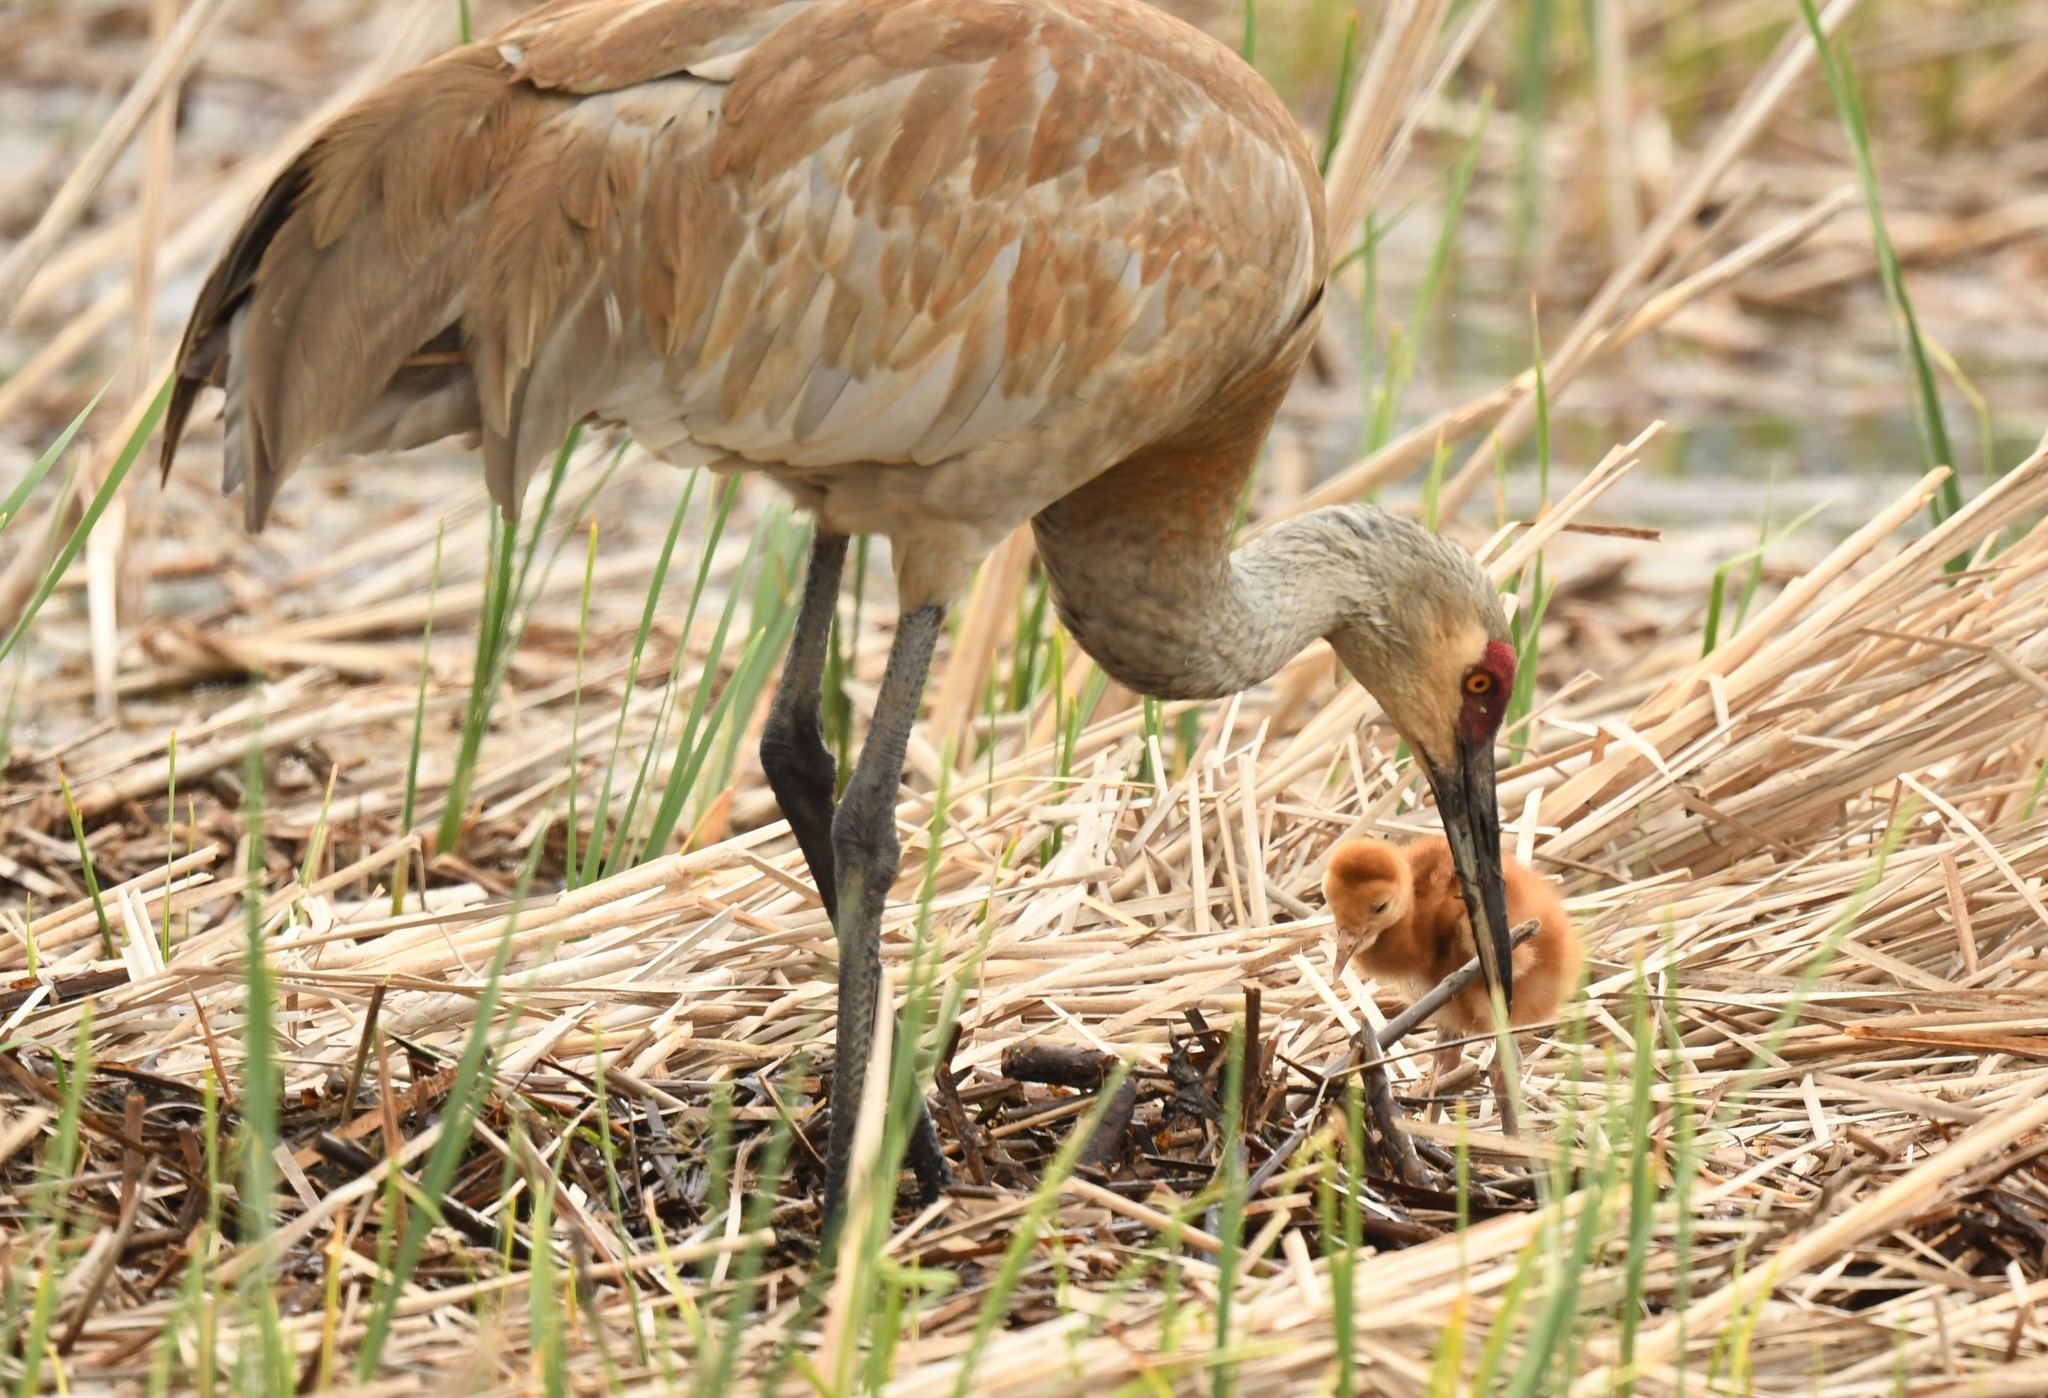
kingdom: Animalia
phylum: Chordata
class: Aves
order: Gruiformes
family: Gruidae
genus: Grus
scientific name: Grus canadensis
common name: Sandhill crane
